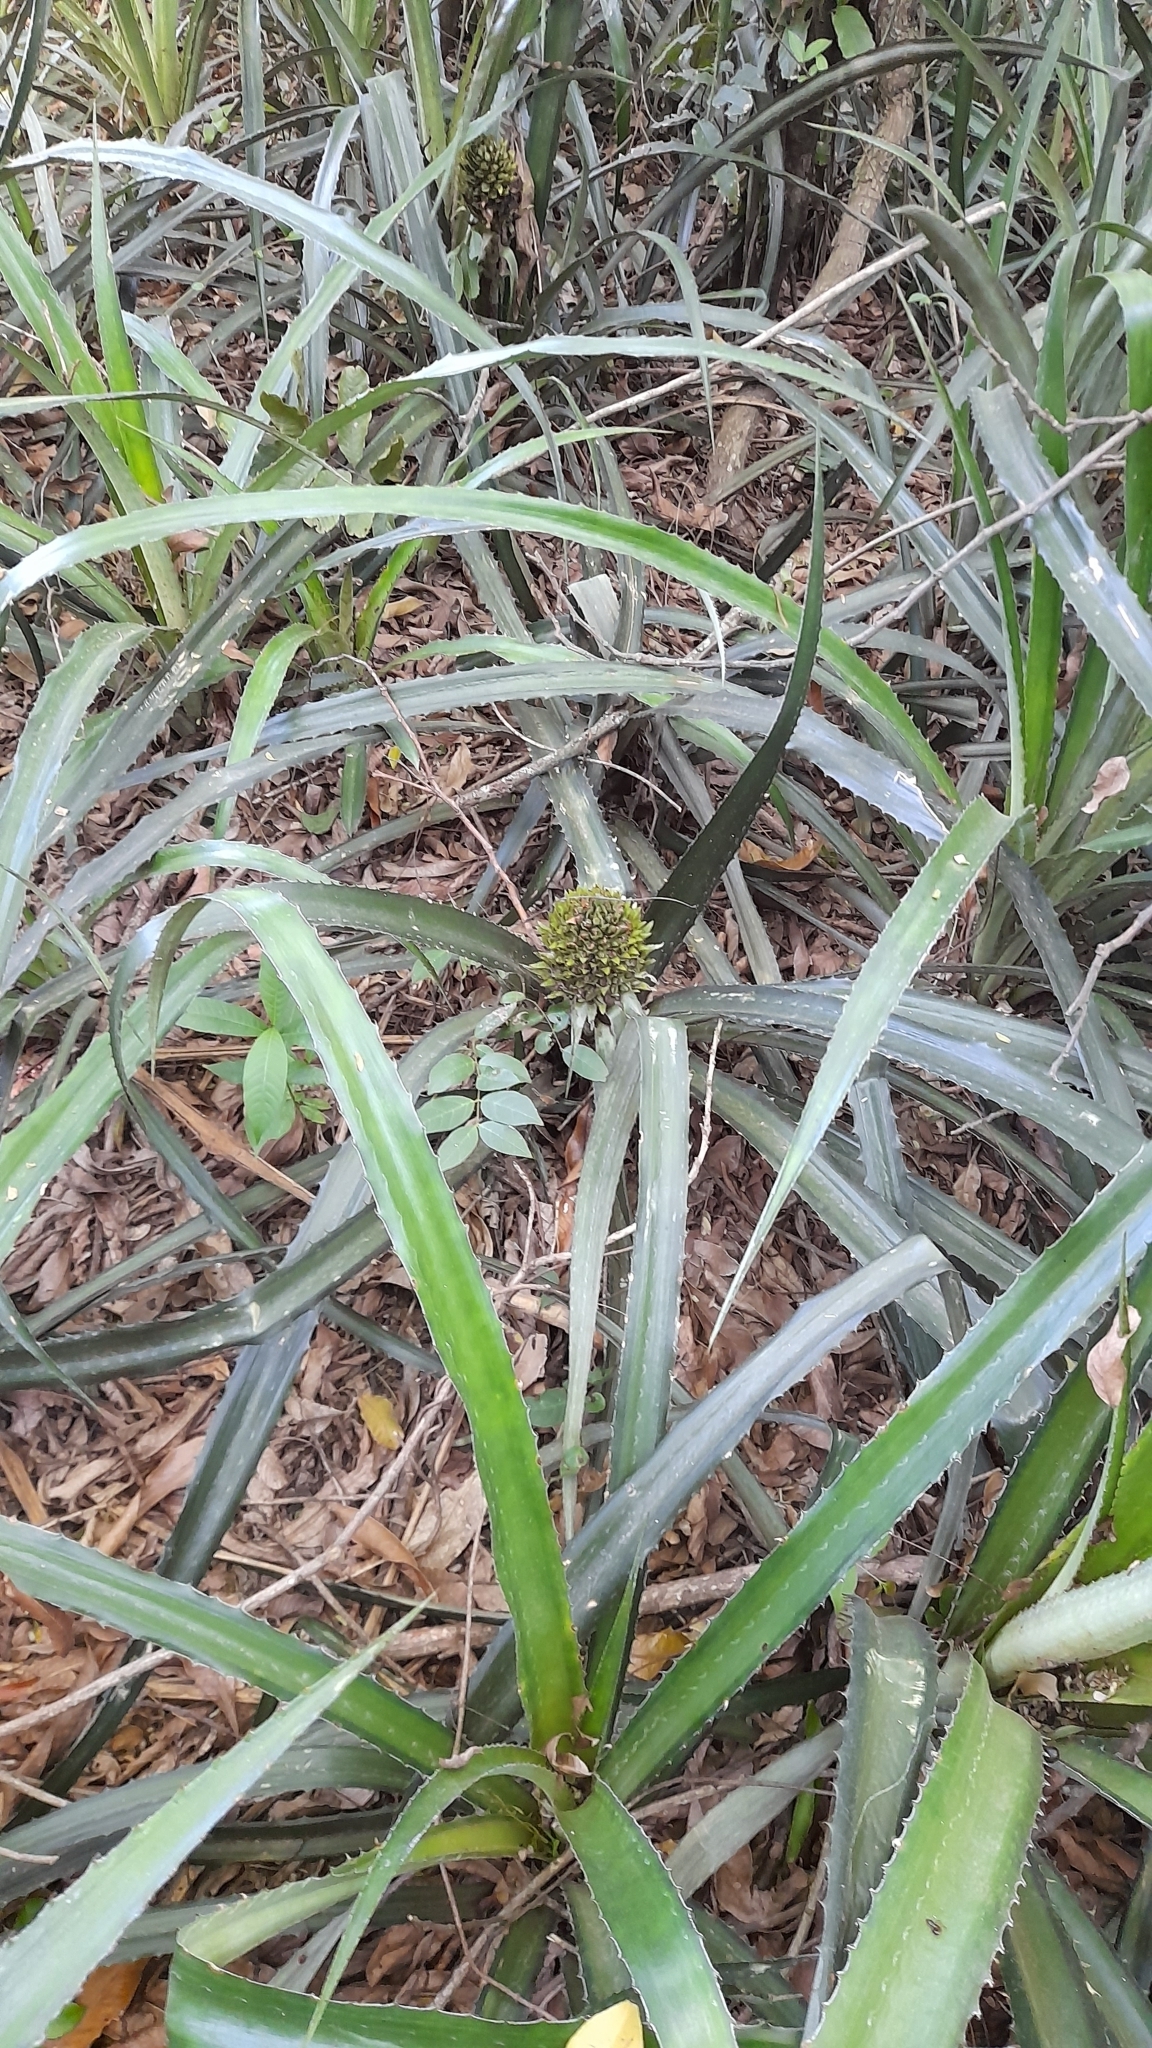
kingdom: Plantae
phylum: Tracheophyta
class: Liliopsida
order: Poales
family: Bromeliaceae
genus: Ananas
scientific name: Ananas macrodontes
